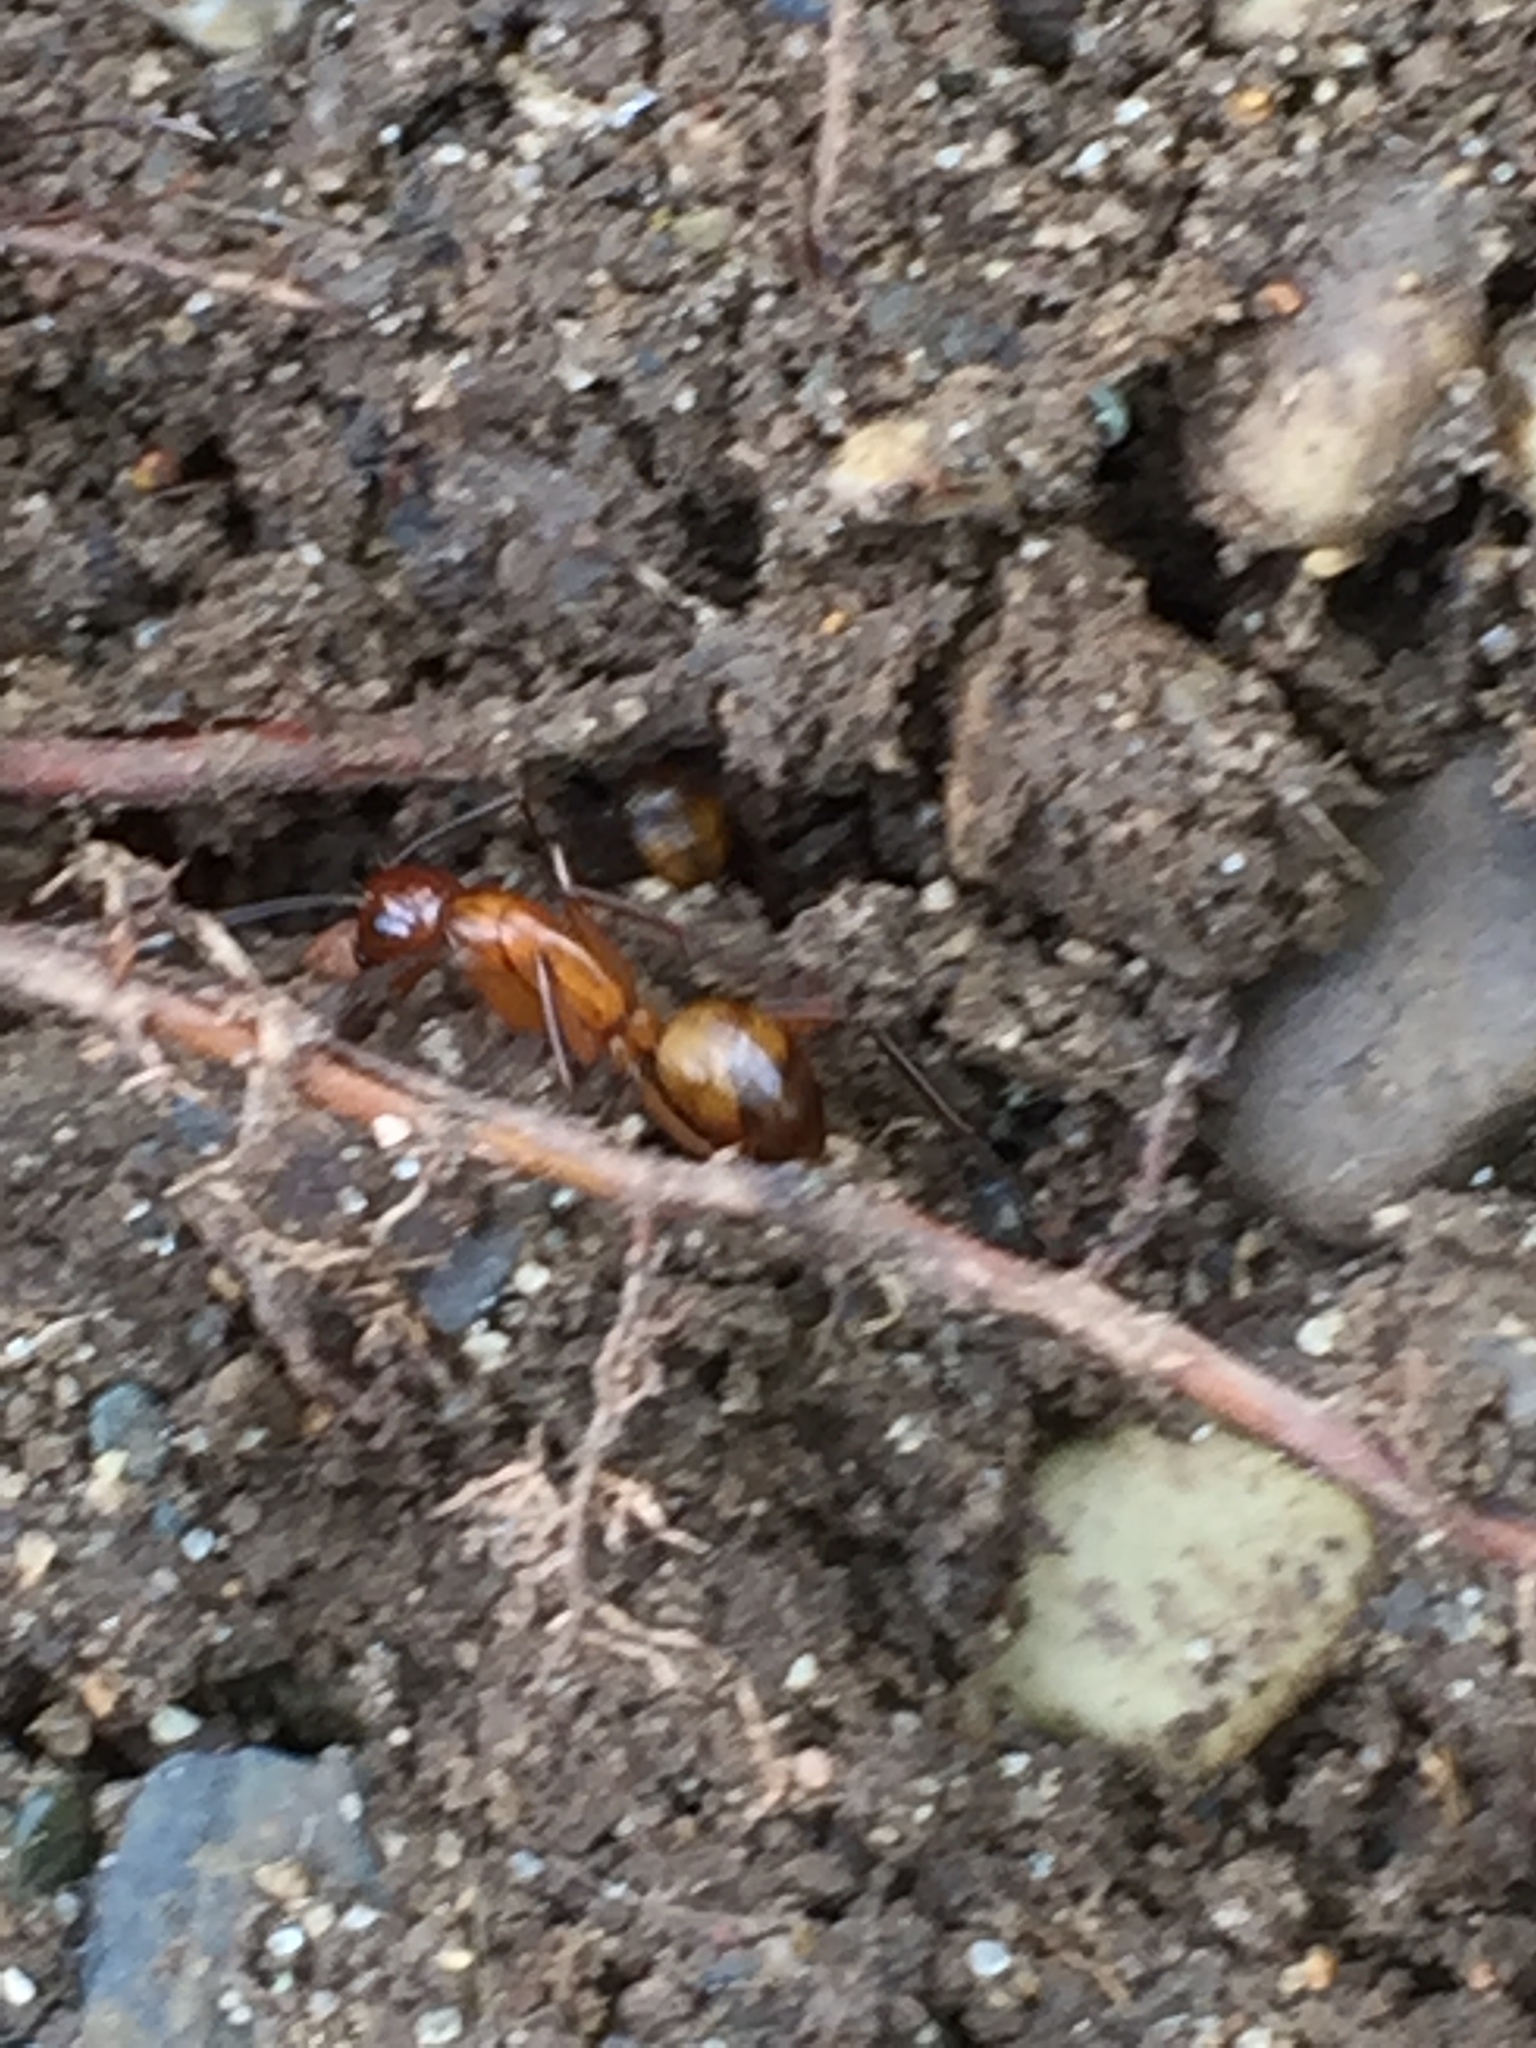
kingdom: Animalia
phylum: Arthropoda
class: Insecta
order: Hymenoptera
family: Formicidae
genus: Camponotus
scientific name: Camponotus castaneus
